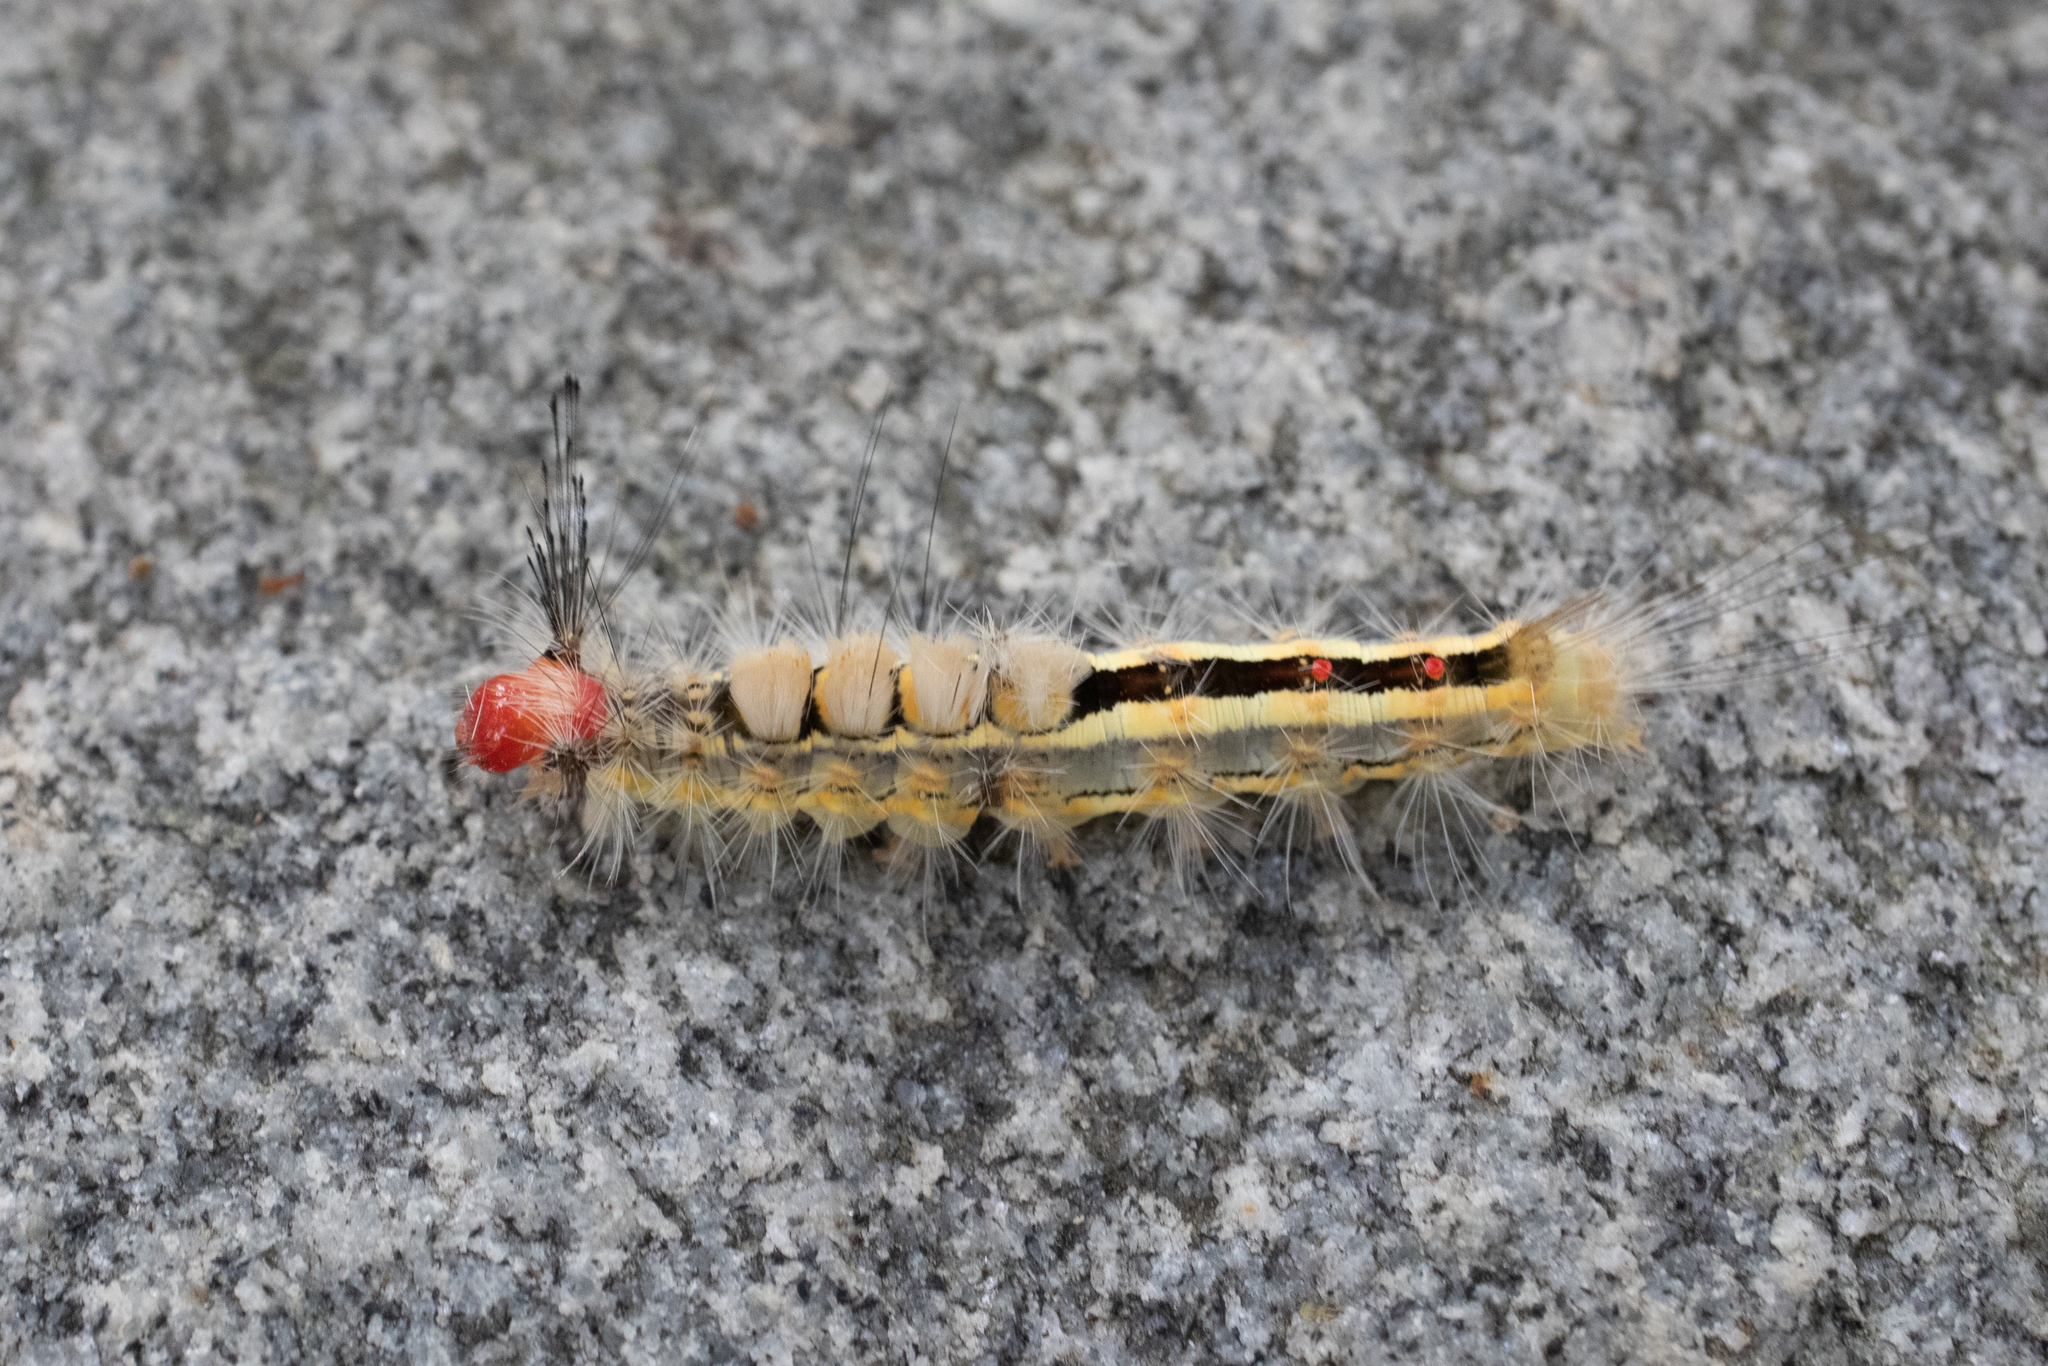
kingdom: Animalia
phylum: Arthropoda
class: Insecta
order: Lepidoptera
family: Erebidae
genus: Orgyia
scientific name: Orgyia leucostigma
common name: White-marked tussock moth
